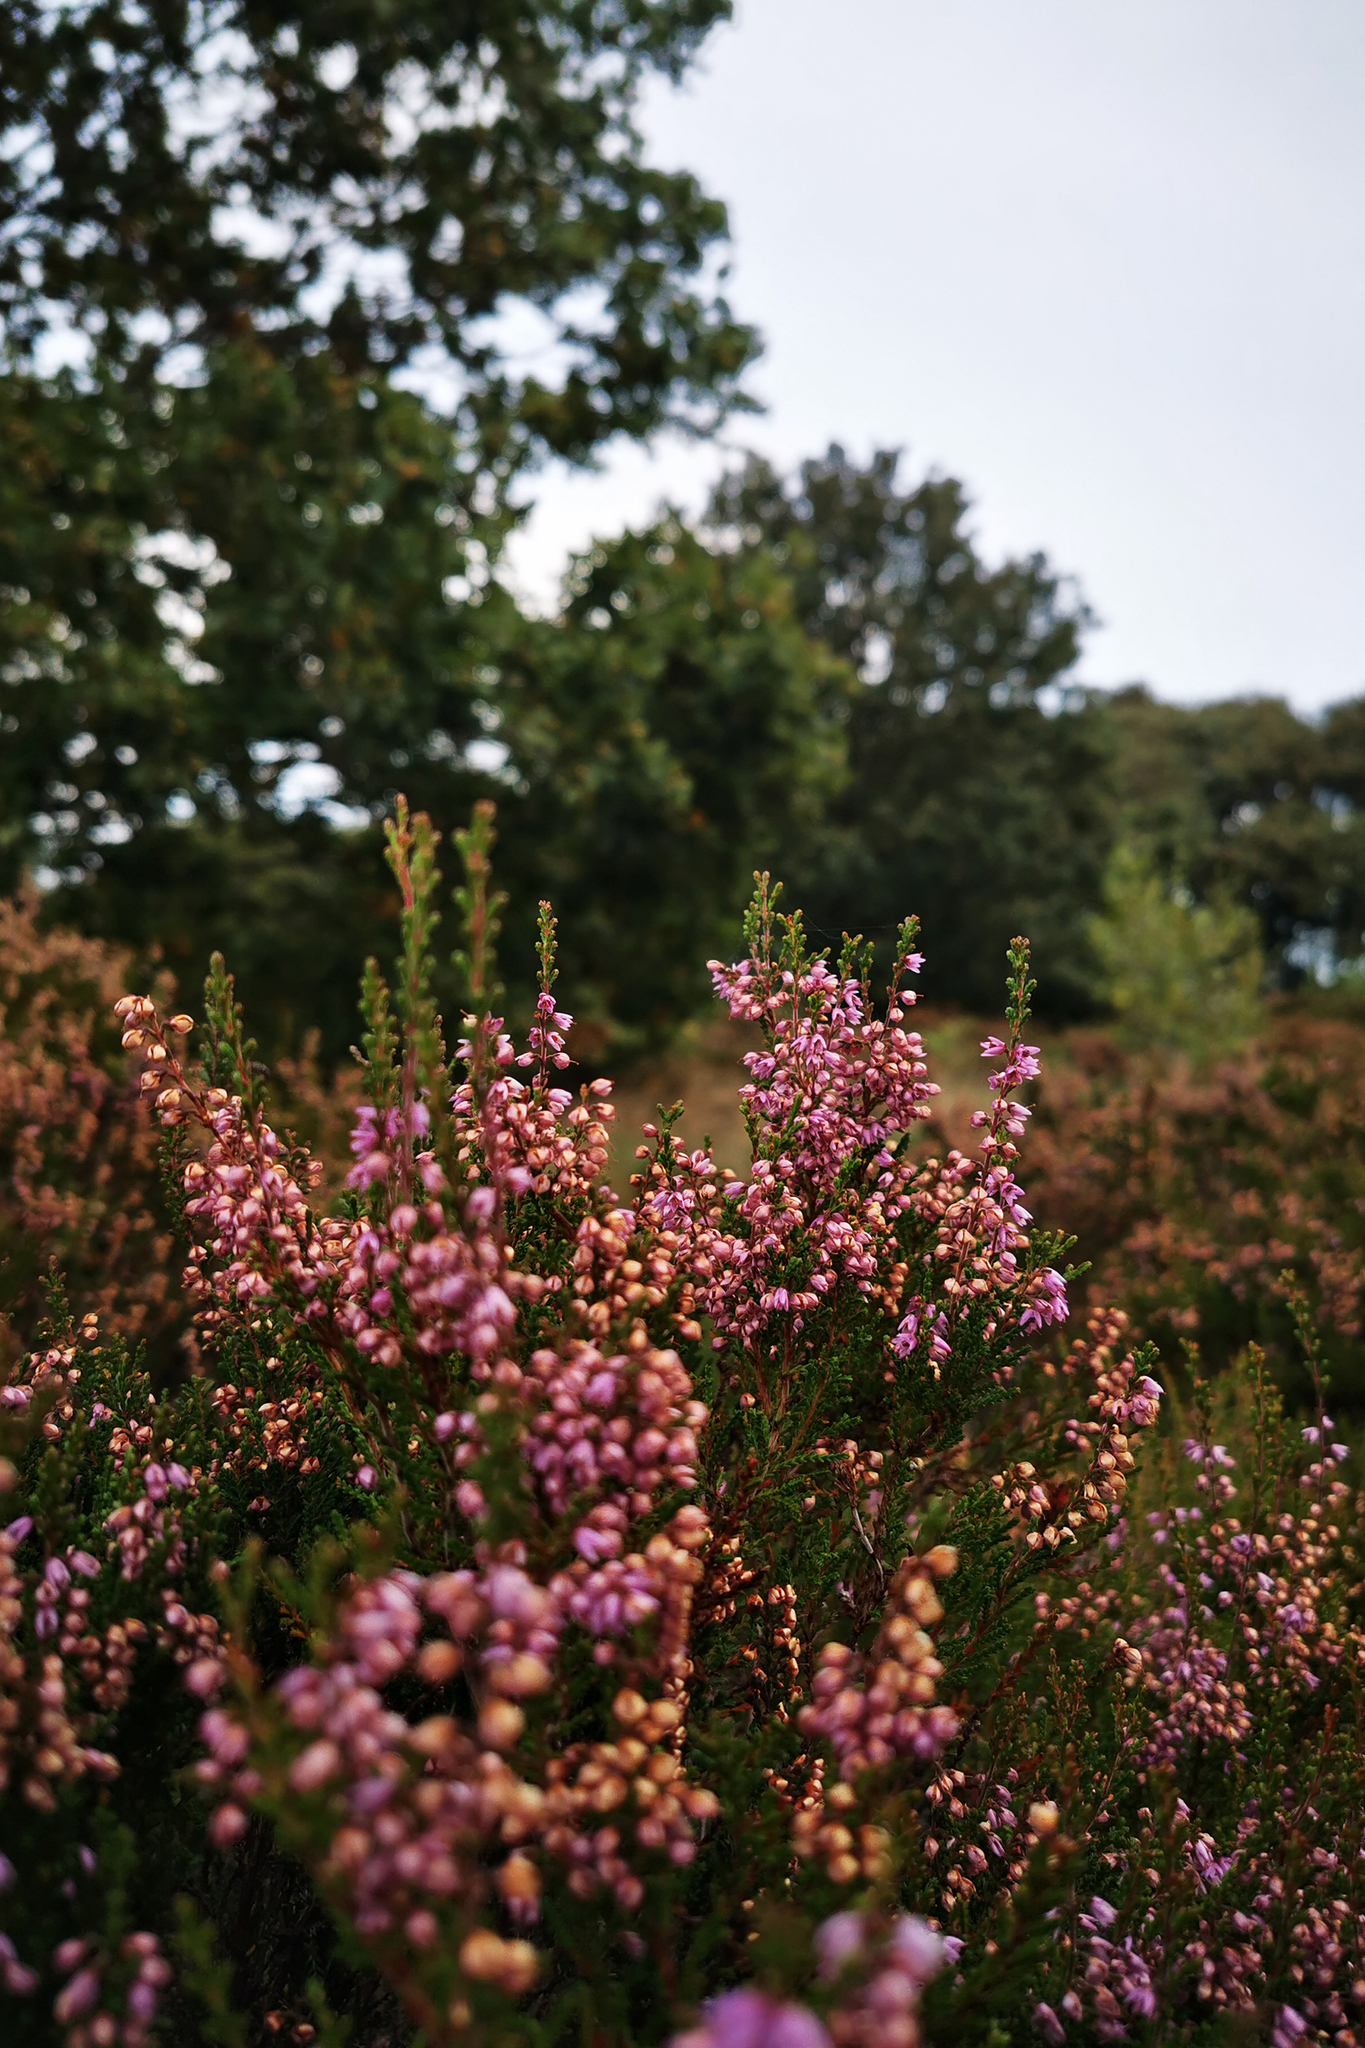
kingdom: Plantae
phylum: Tracheophyta
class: Magnoliopsida
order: Ericales
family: Ericaceae
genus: Calluna
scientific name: Calluna vulgaris
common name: Heather
